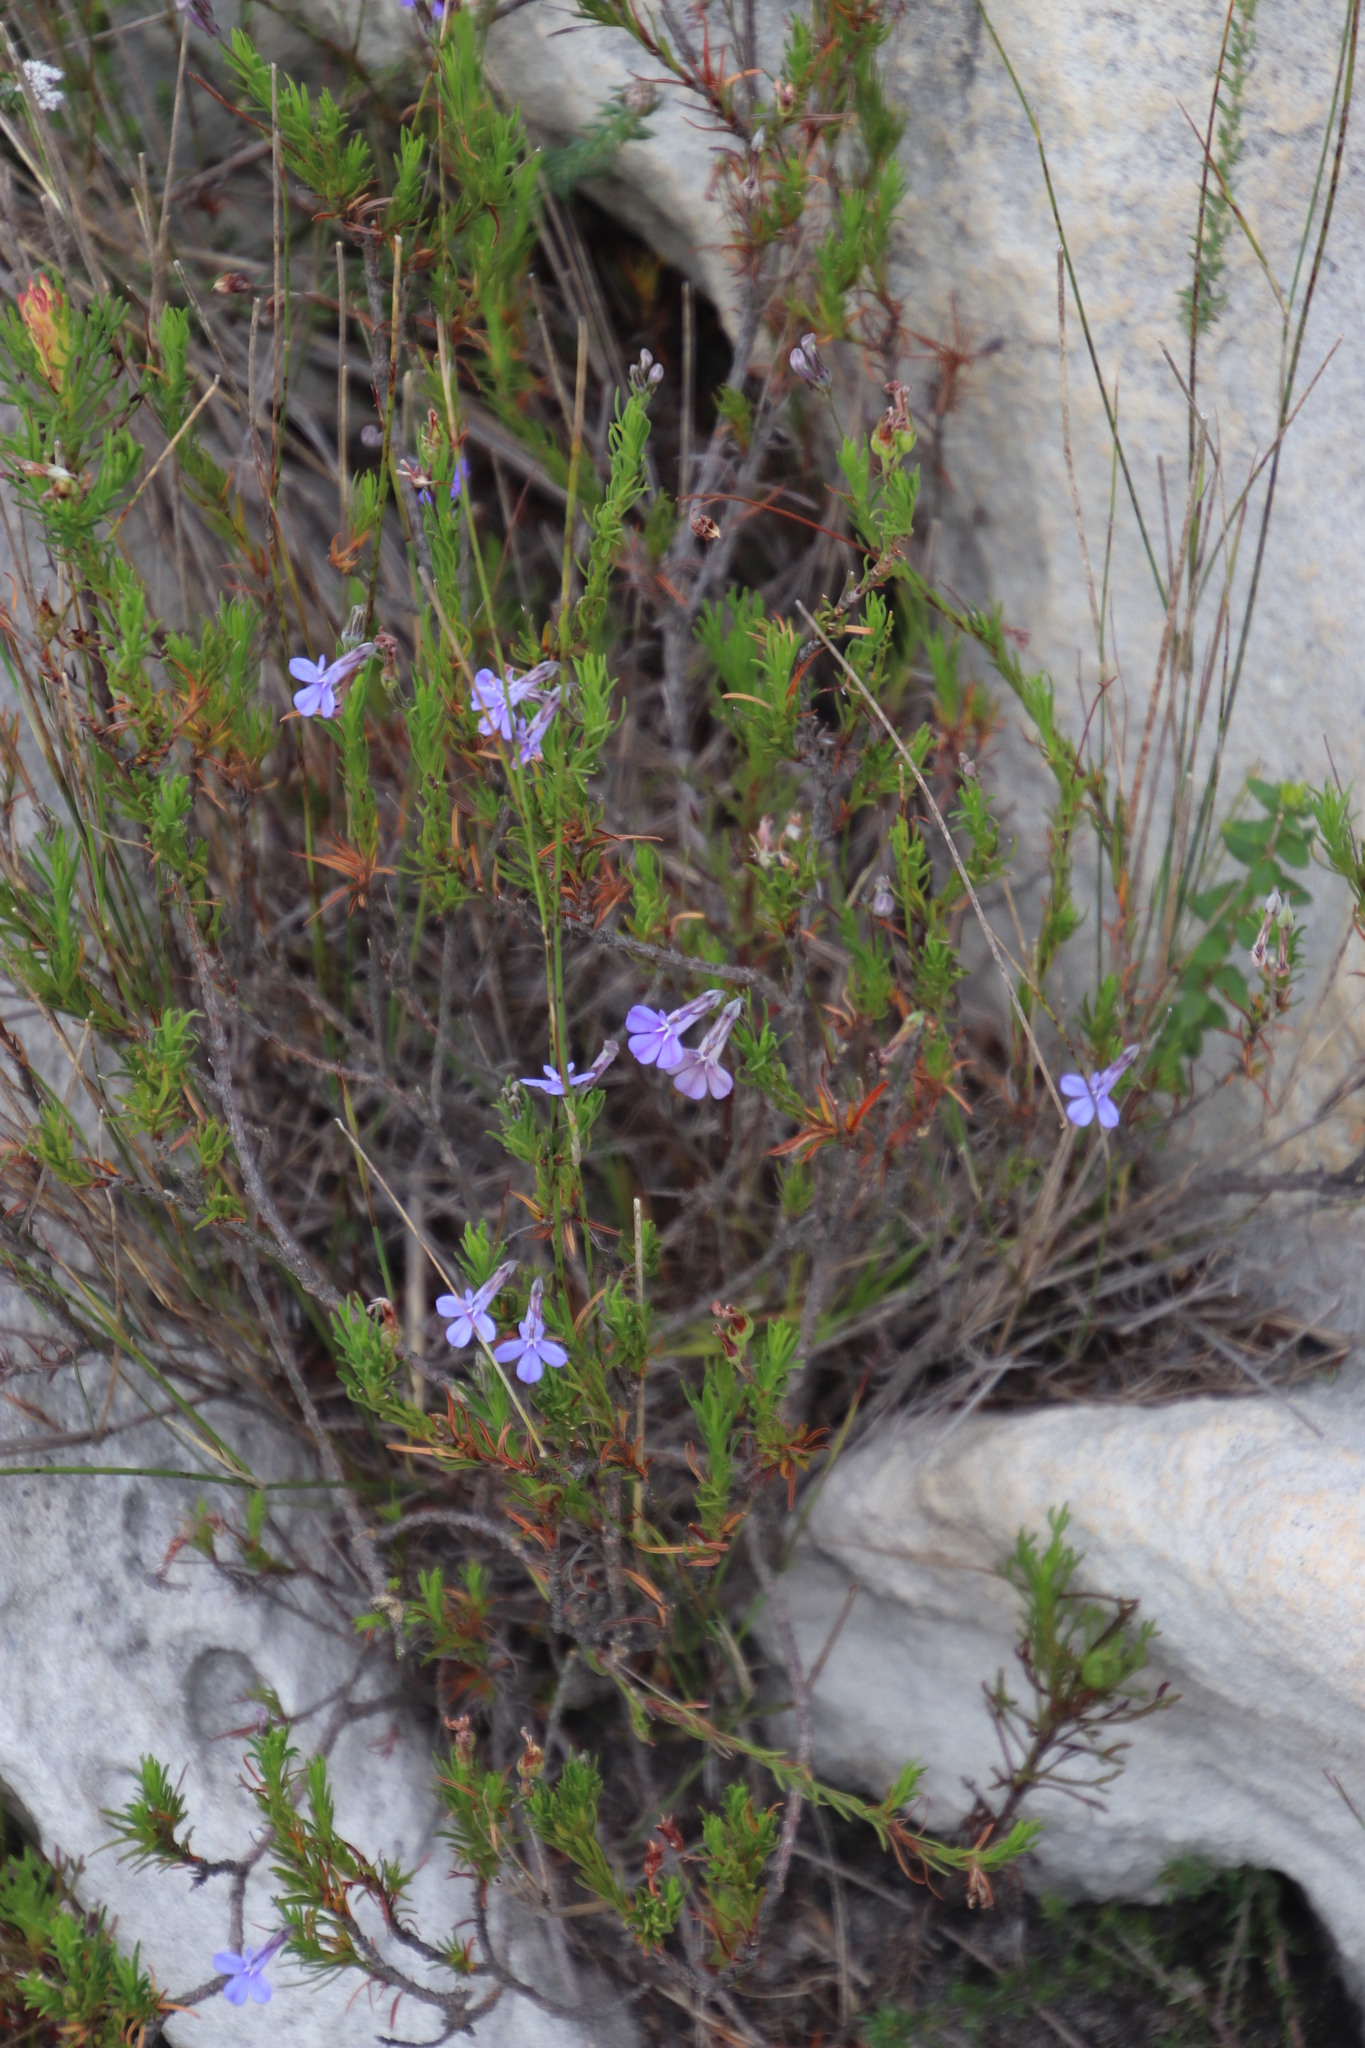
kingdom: Plantae
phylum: Tracheophyta
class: Magnoliopsida
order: Asterales
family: Campanulaceae
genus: Lobelia
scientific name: Lobelia pinifolia
